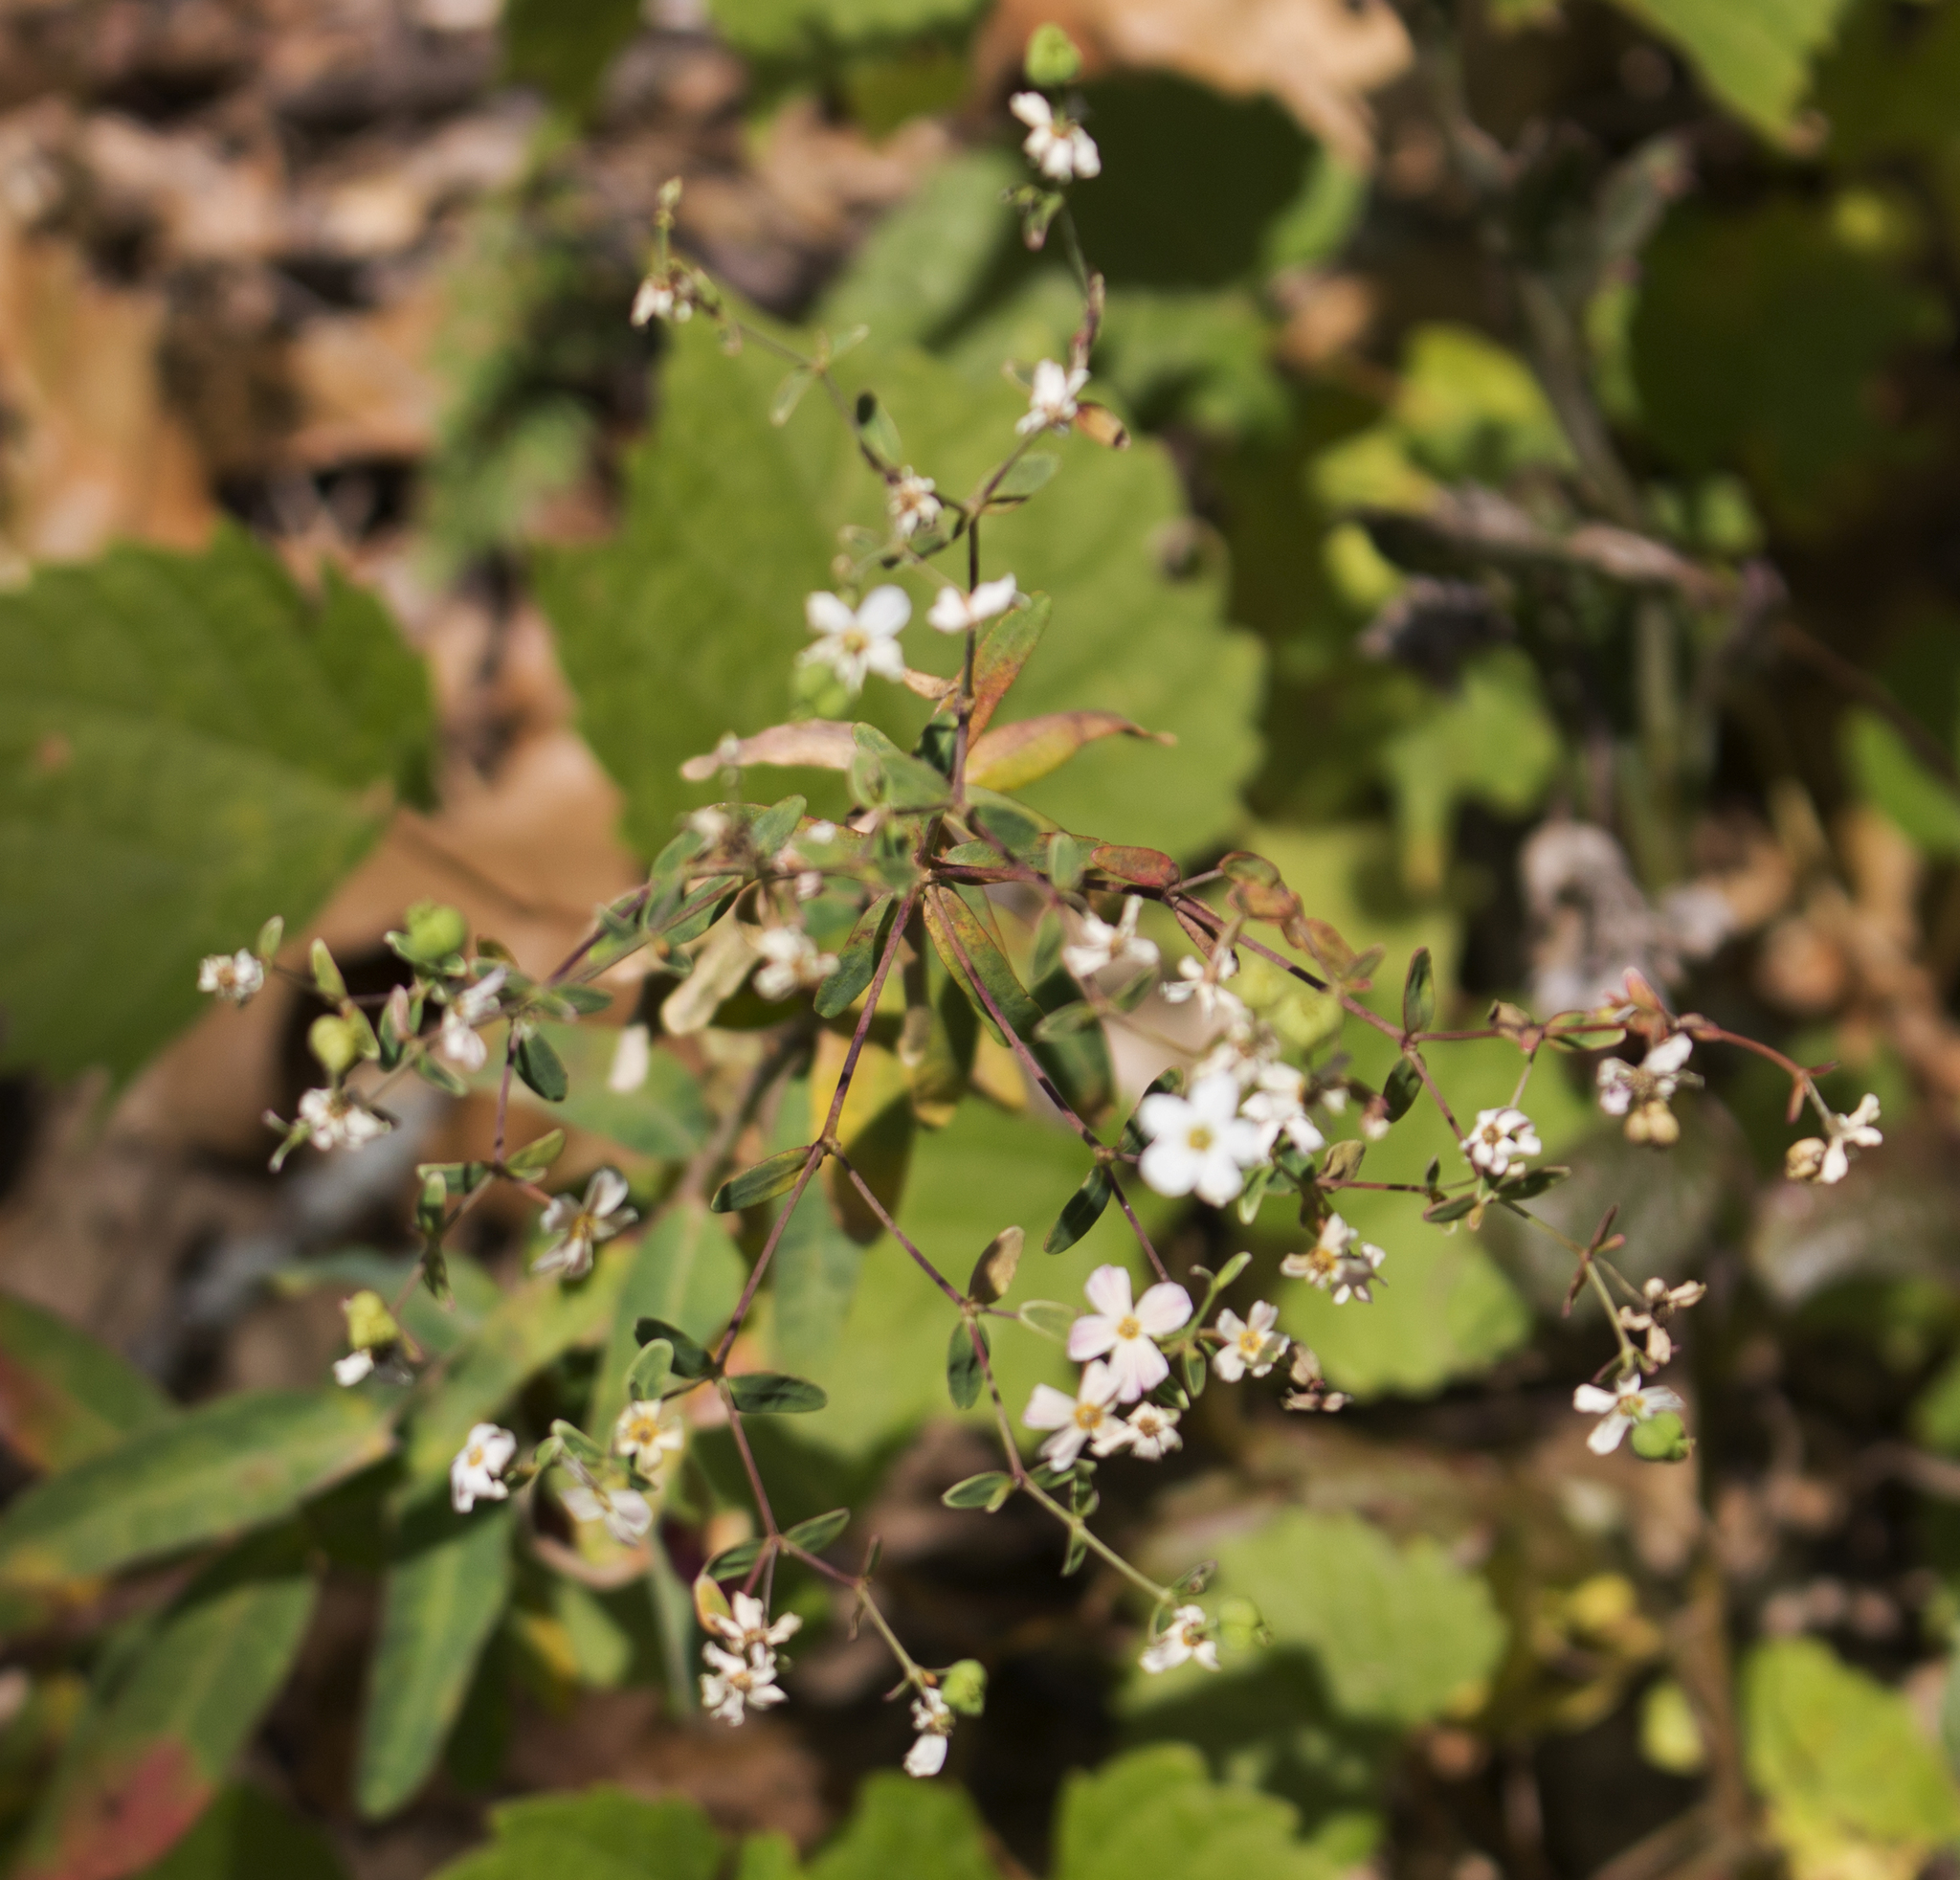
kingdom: Plantae
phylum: Tracheophyta
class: Magnoliopsida
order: Malpighiales
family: Euphorbiaceae
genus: Euphorbia
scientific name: Euphorbia corollata
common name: Flowering spurge
